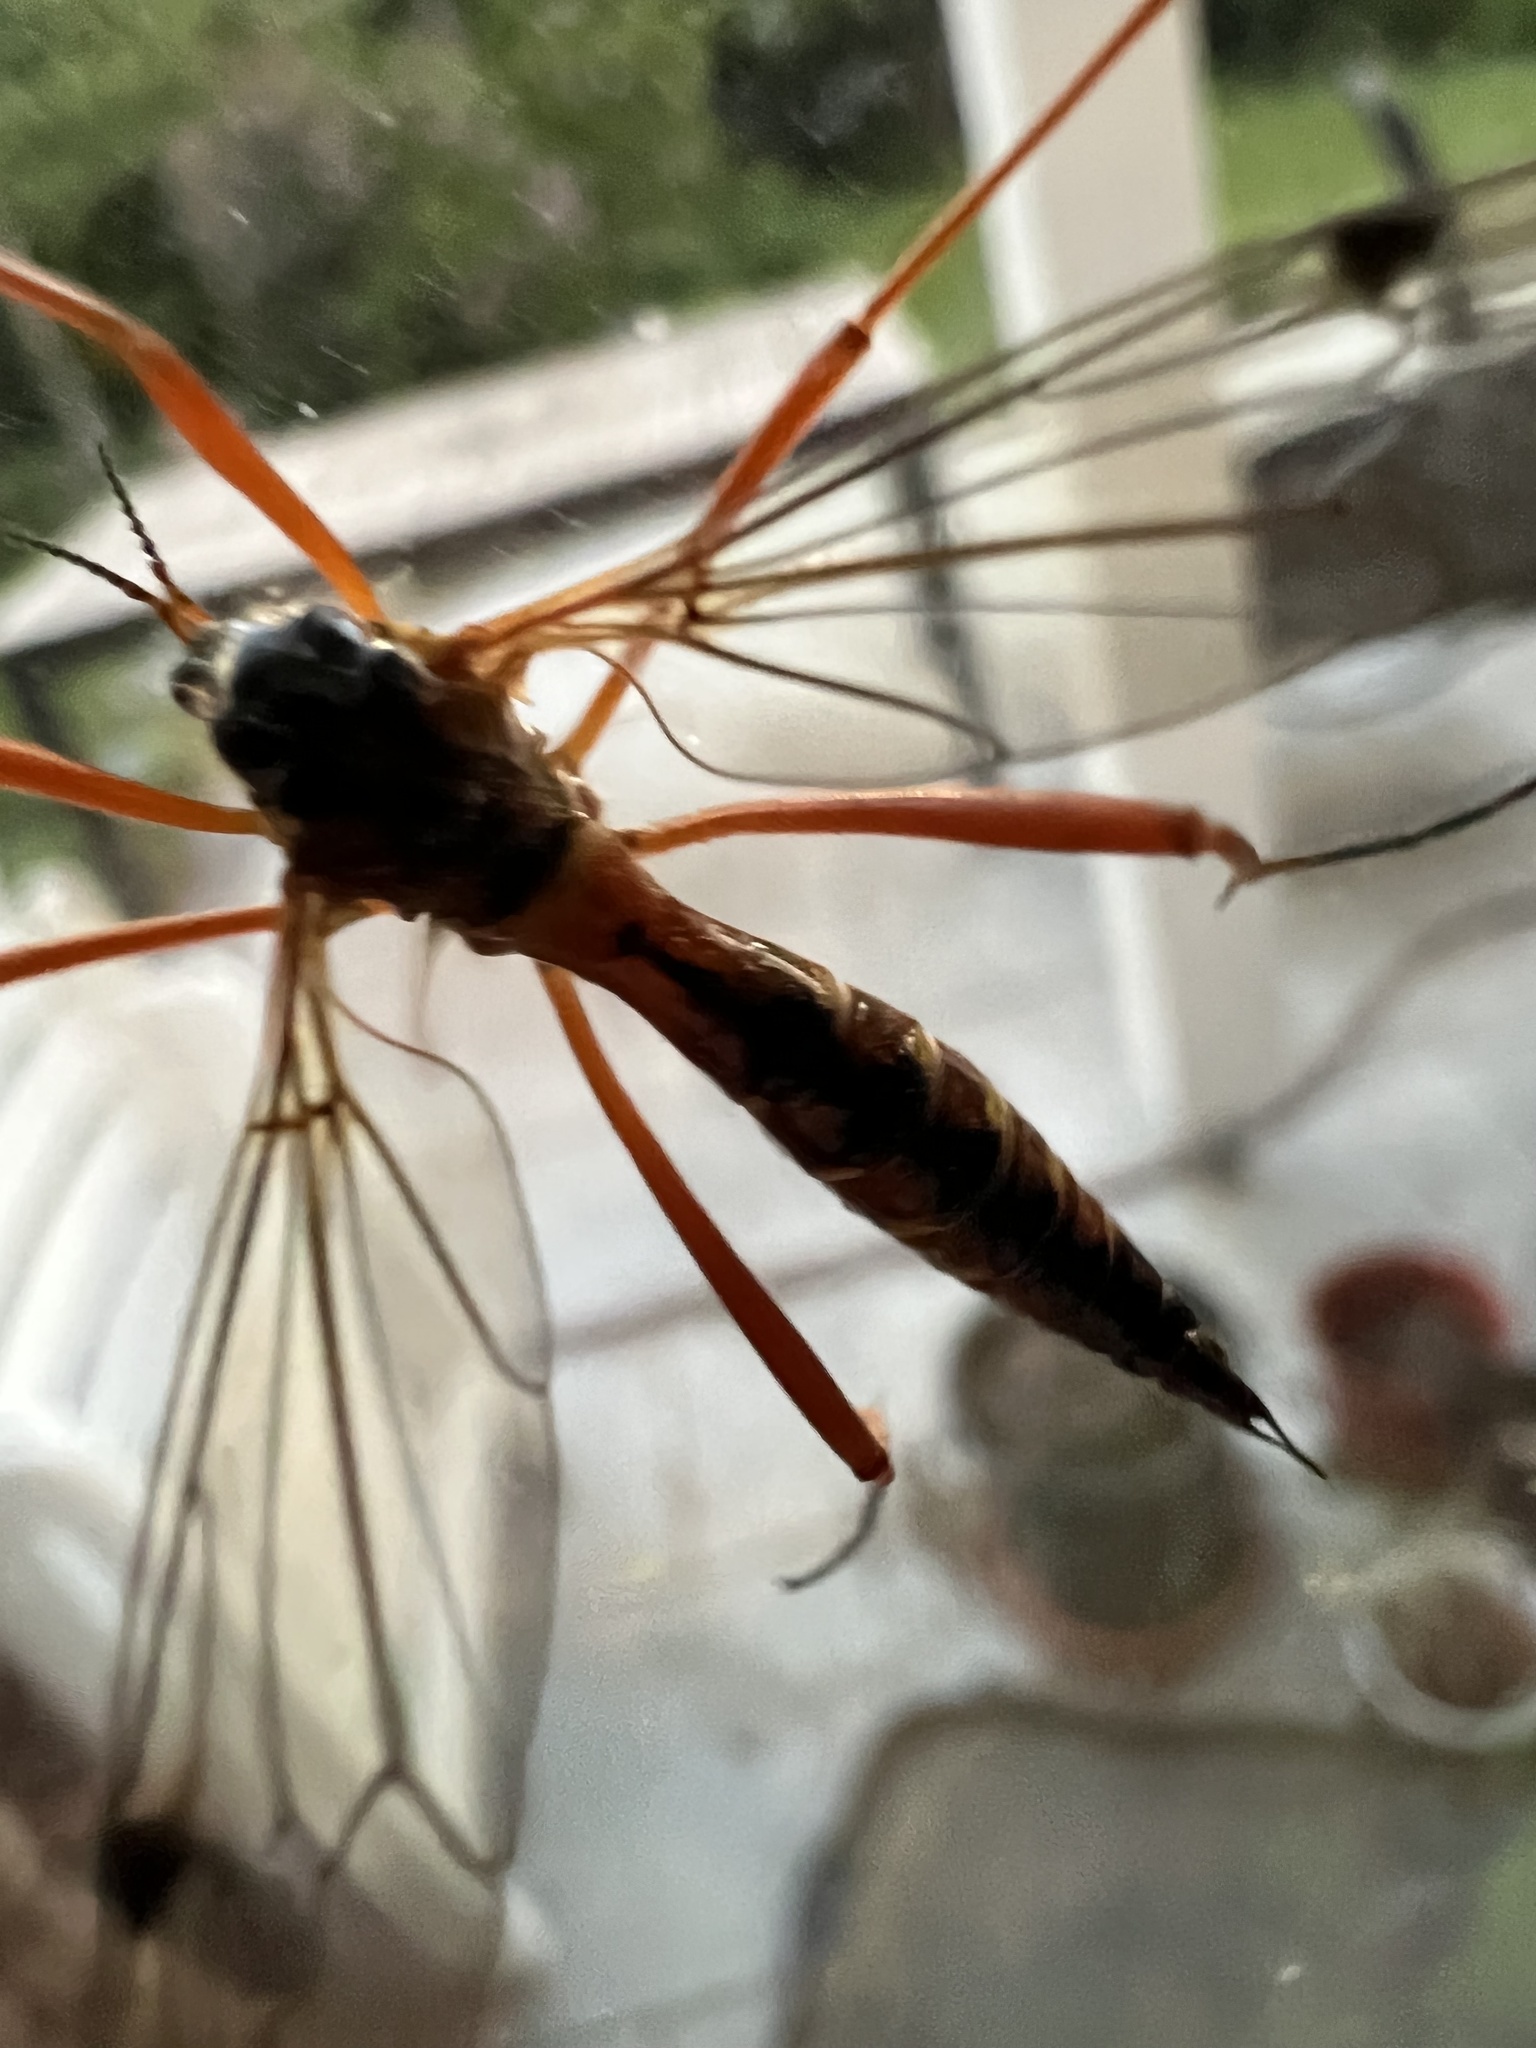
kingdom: Animalia
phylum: Arthropoda
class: Insecta
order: Diptera
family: Tipulidae
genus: Ctenophora
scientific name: Ctenophora pectinicornis
